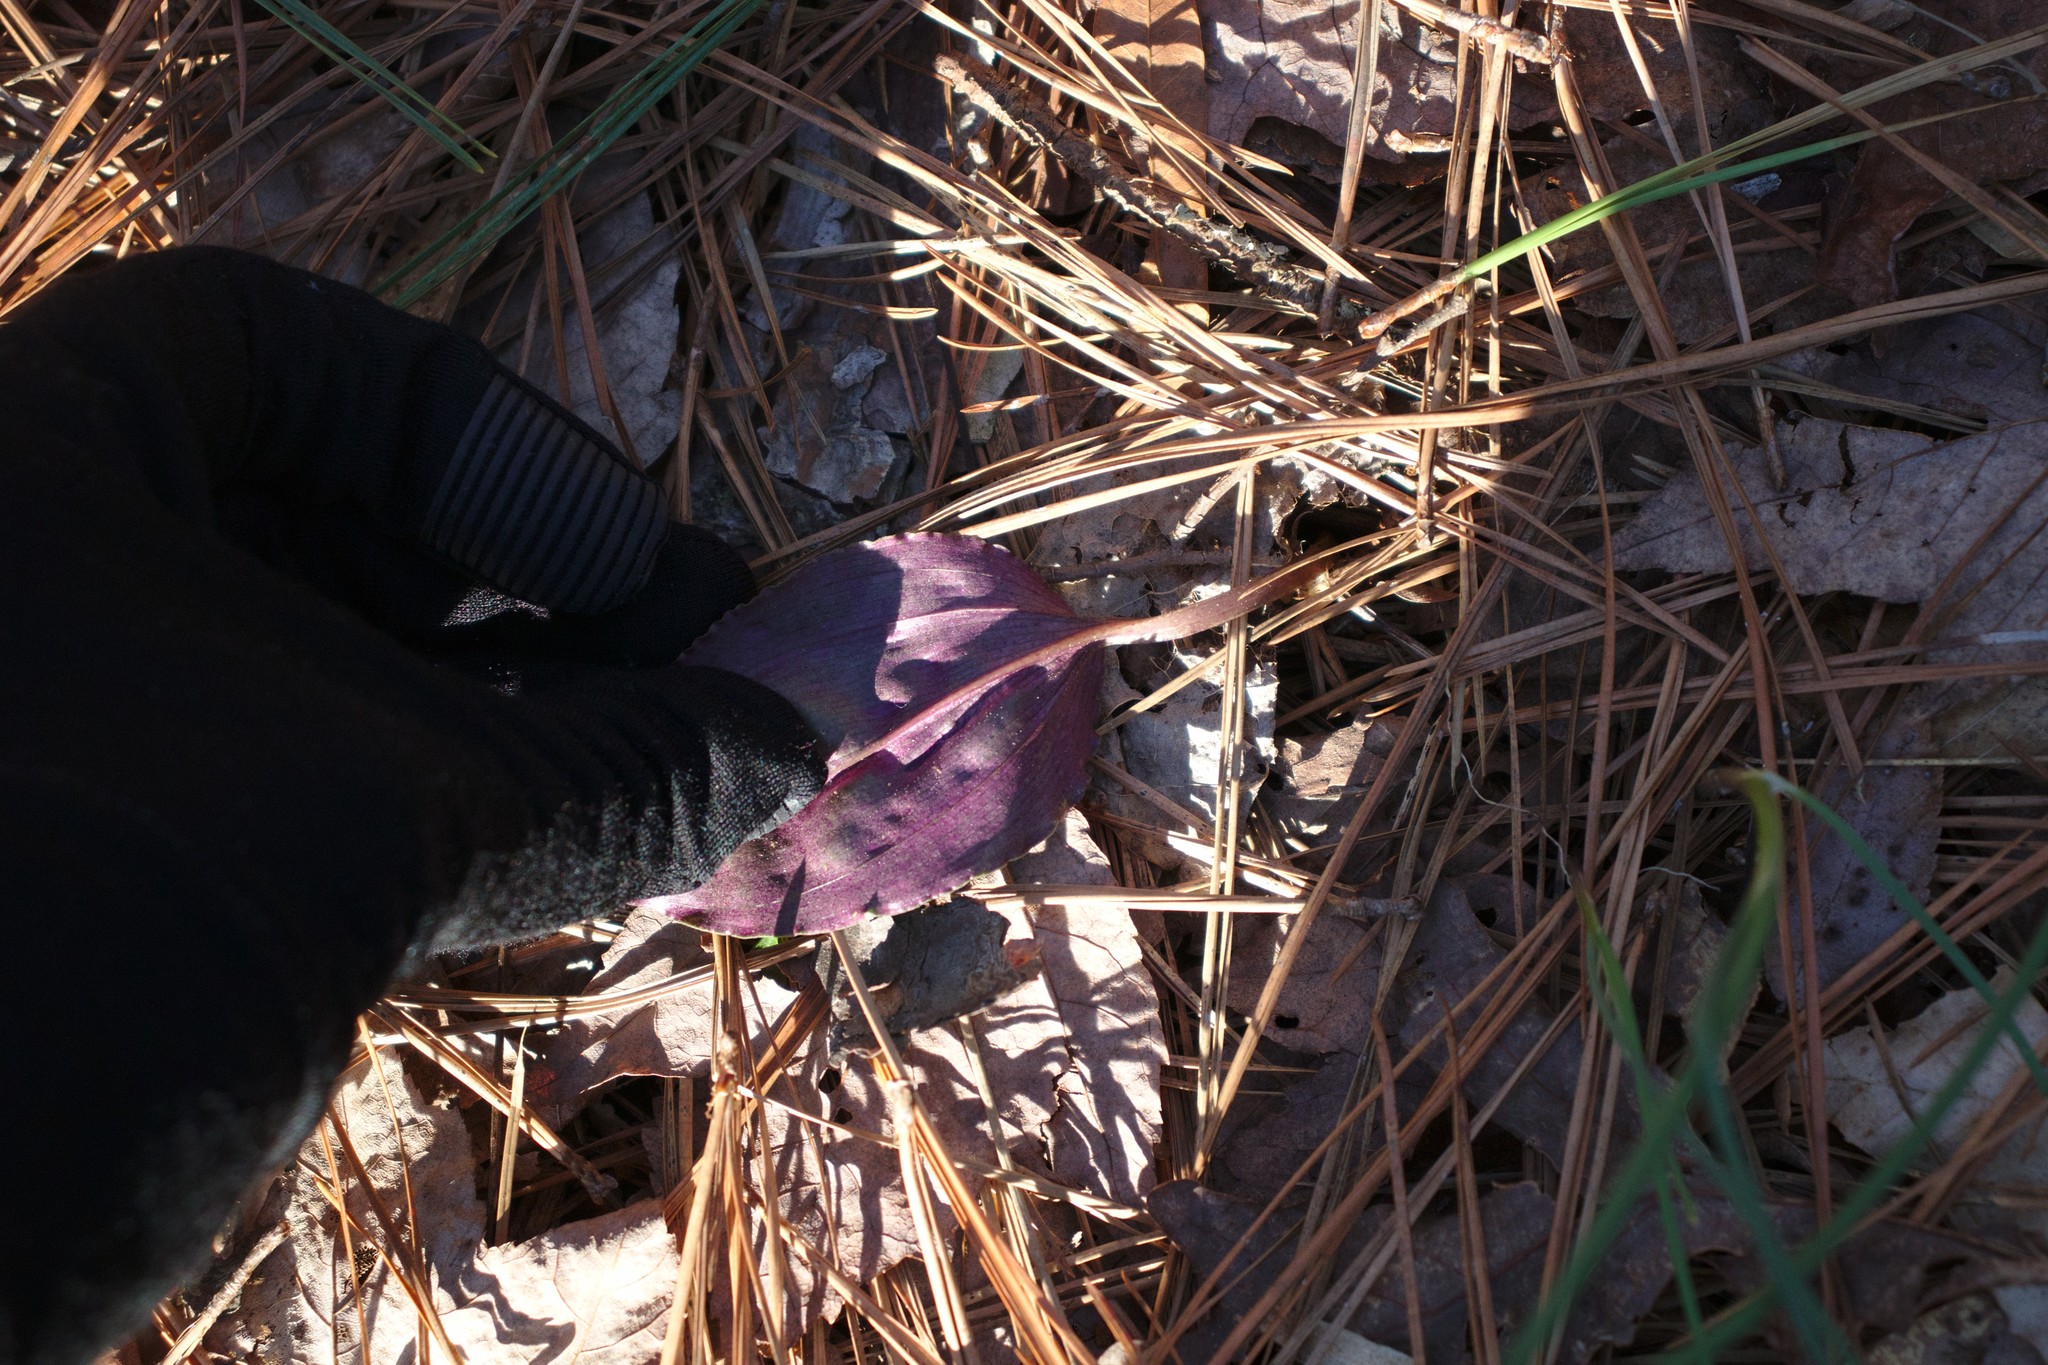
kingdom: Plantae
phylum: Tracheophyta
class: Liliopsida
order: Asparagales
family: Orchidaceae
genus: Tipularia
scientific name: Tipularia discolor
